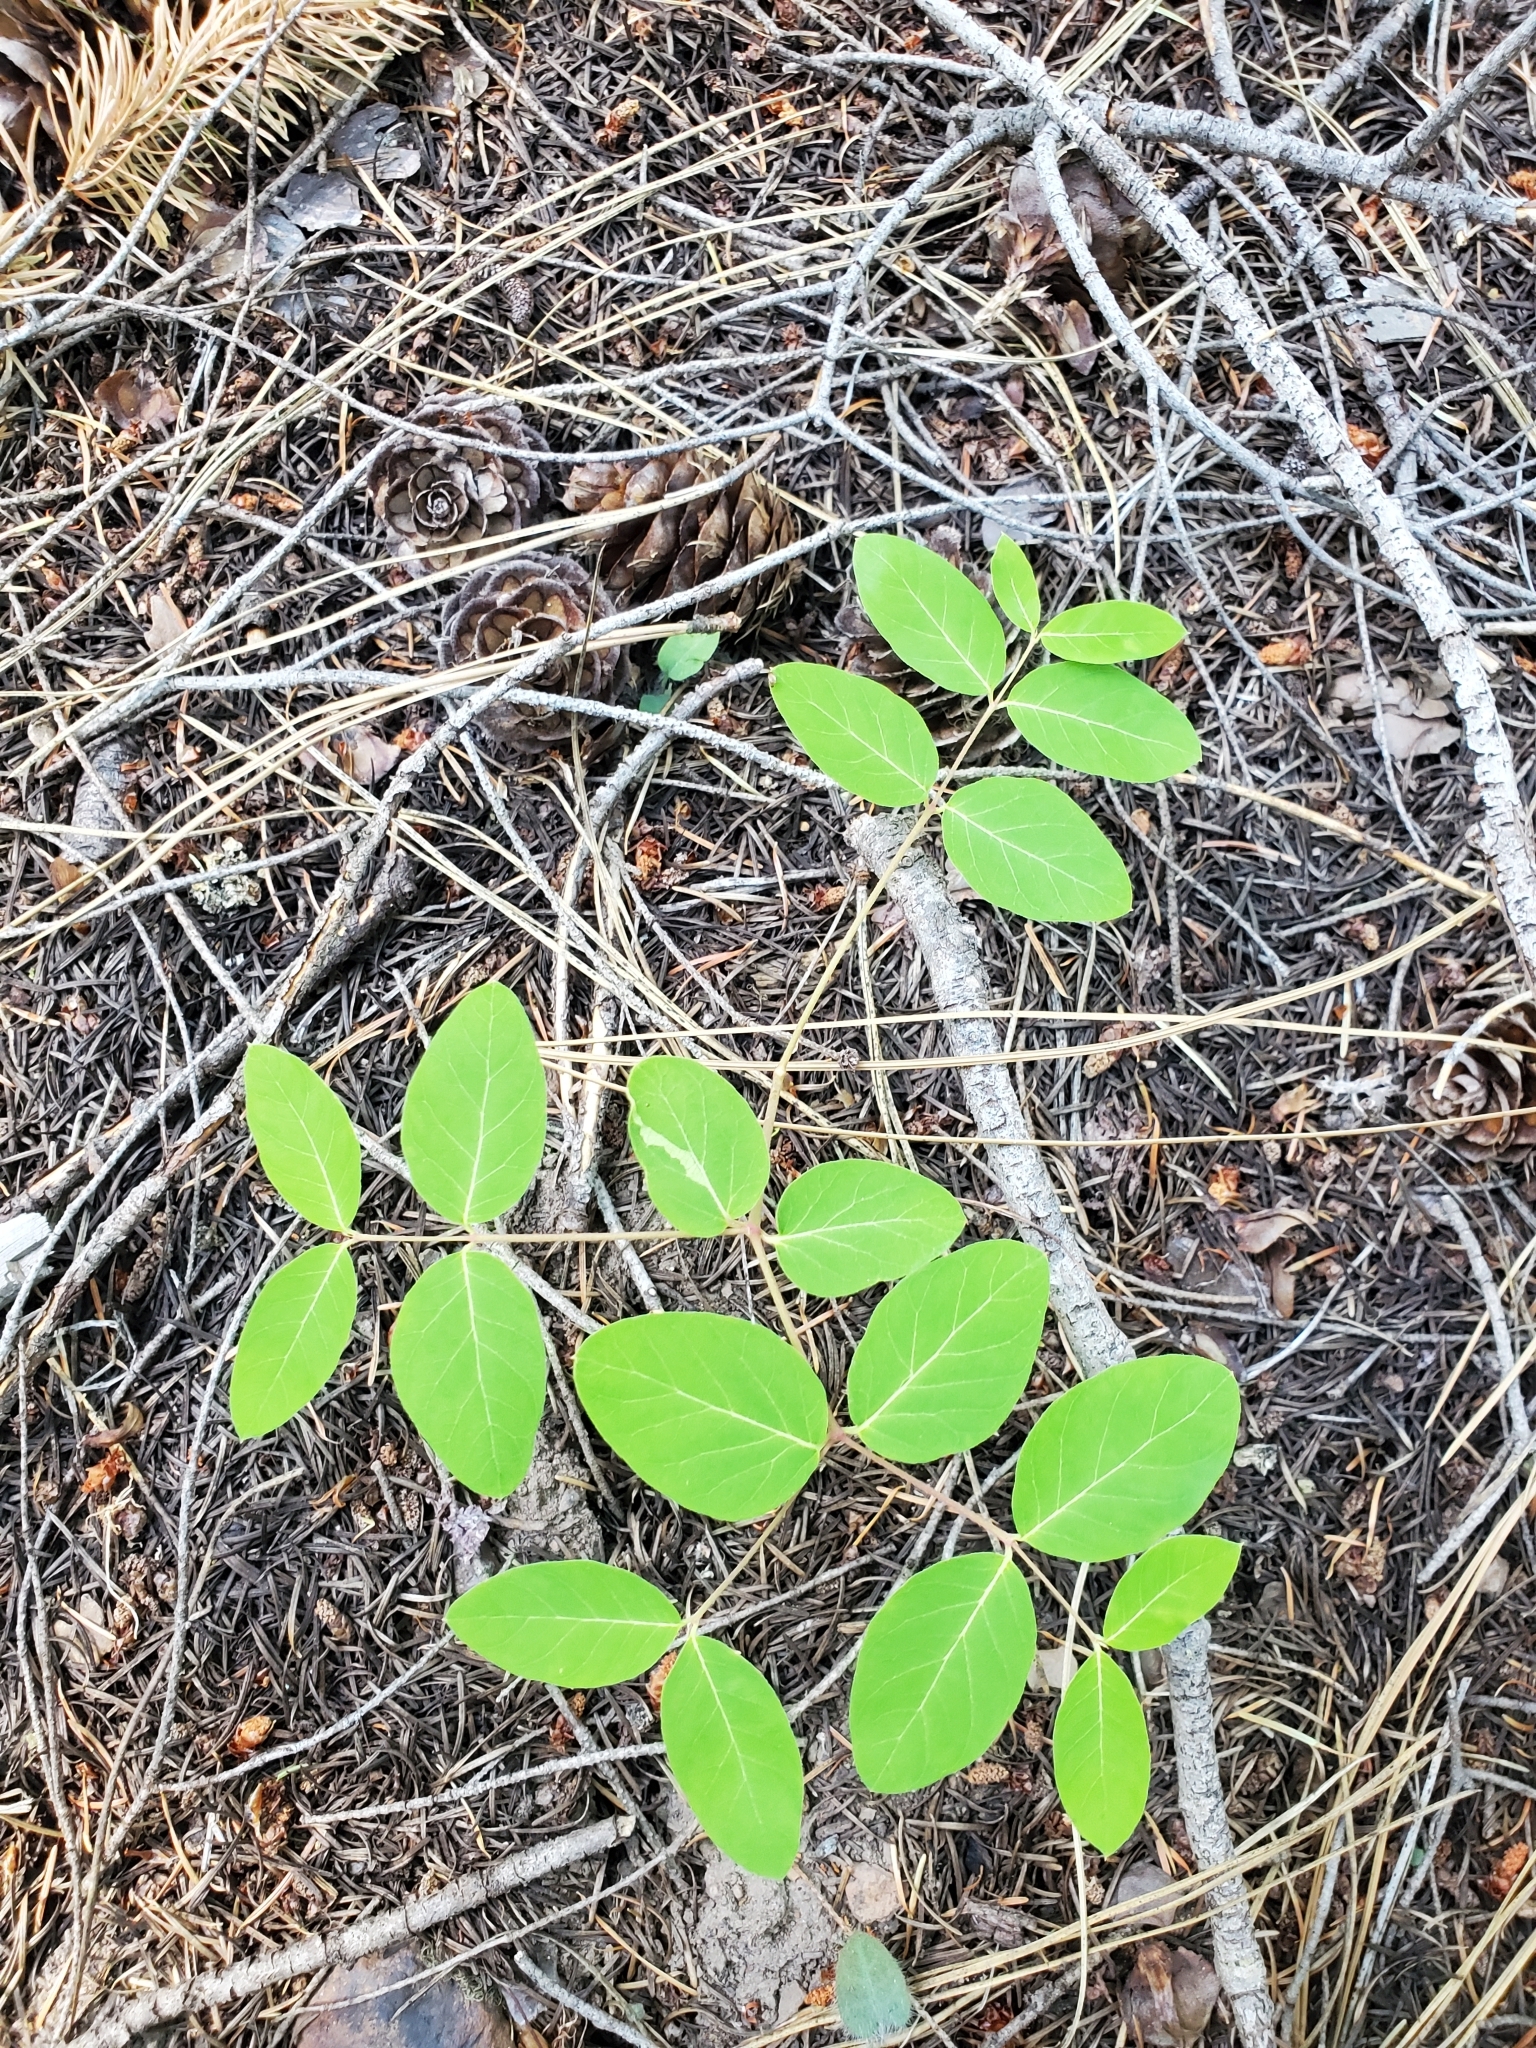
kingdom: Plantae
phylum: Tracheophyta
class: Magnoliopsida
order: Gentianales
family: Apocynaceae
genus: Apocynum
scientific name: Apocynum androsaemifolium
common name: Spreading dogbane
